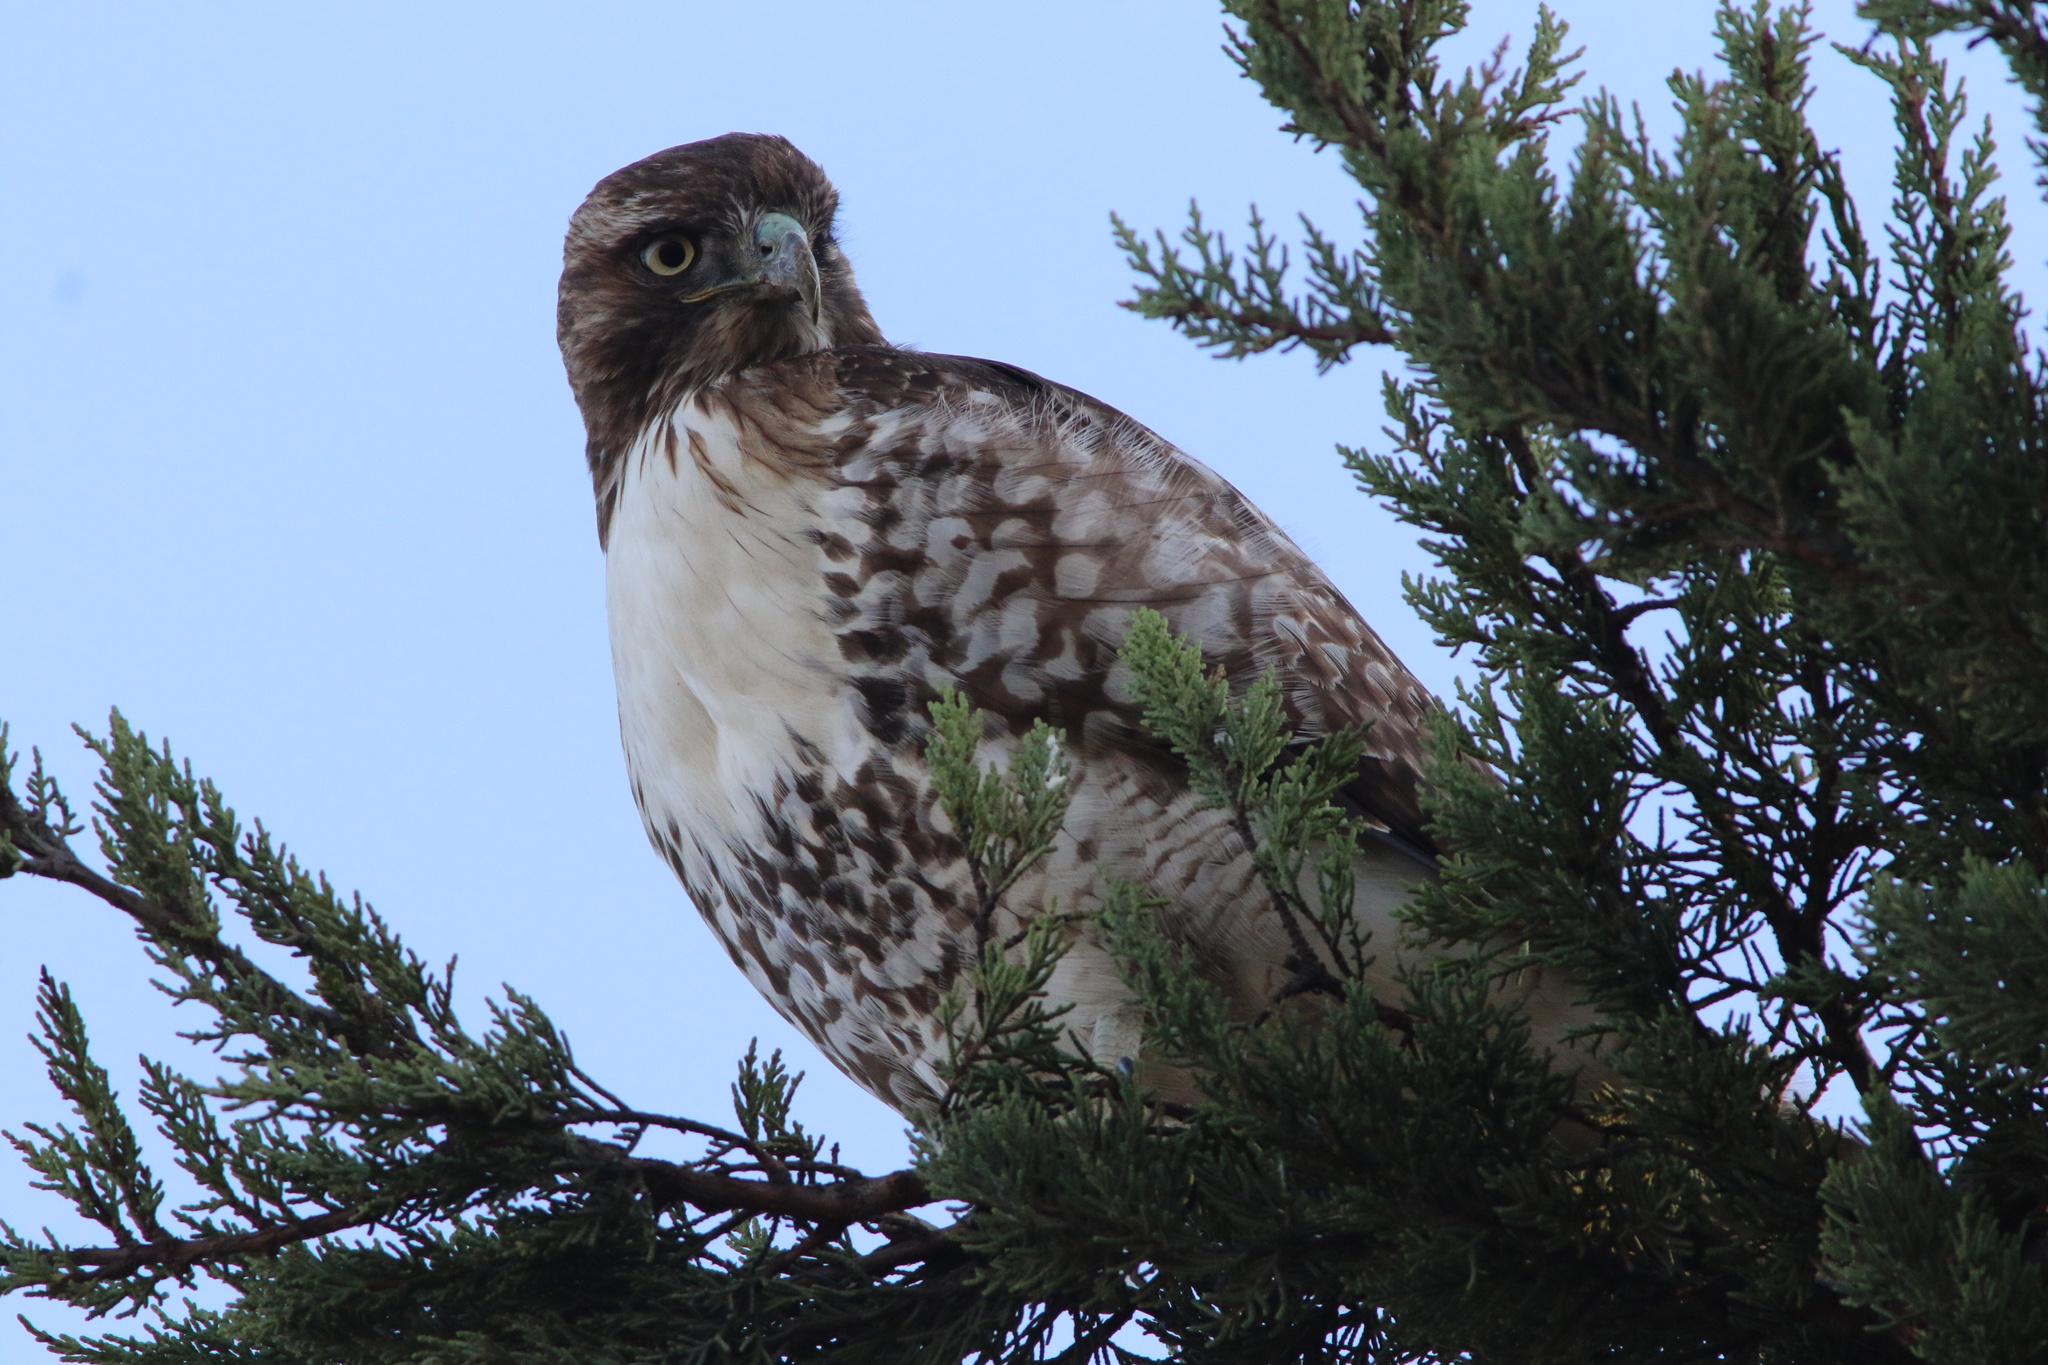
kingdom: Animalia
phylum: Chordata
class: Aves
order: Accipitriformes
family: Accipitridae
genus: Buteo
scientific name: Buteo jamaicensis
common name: Red-tailed hawk
